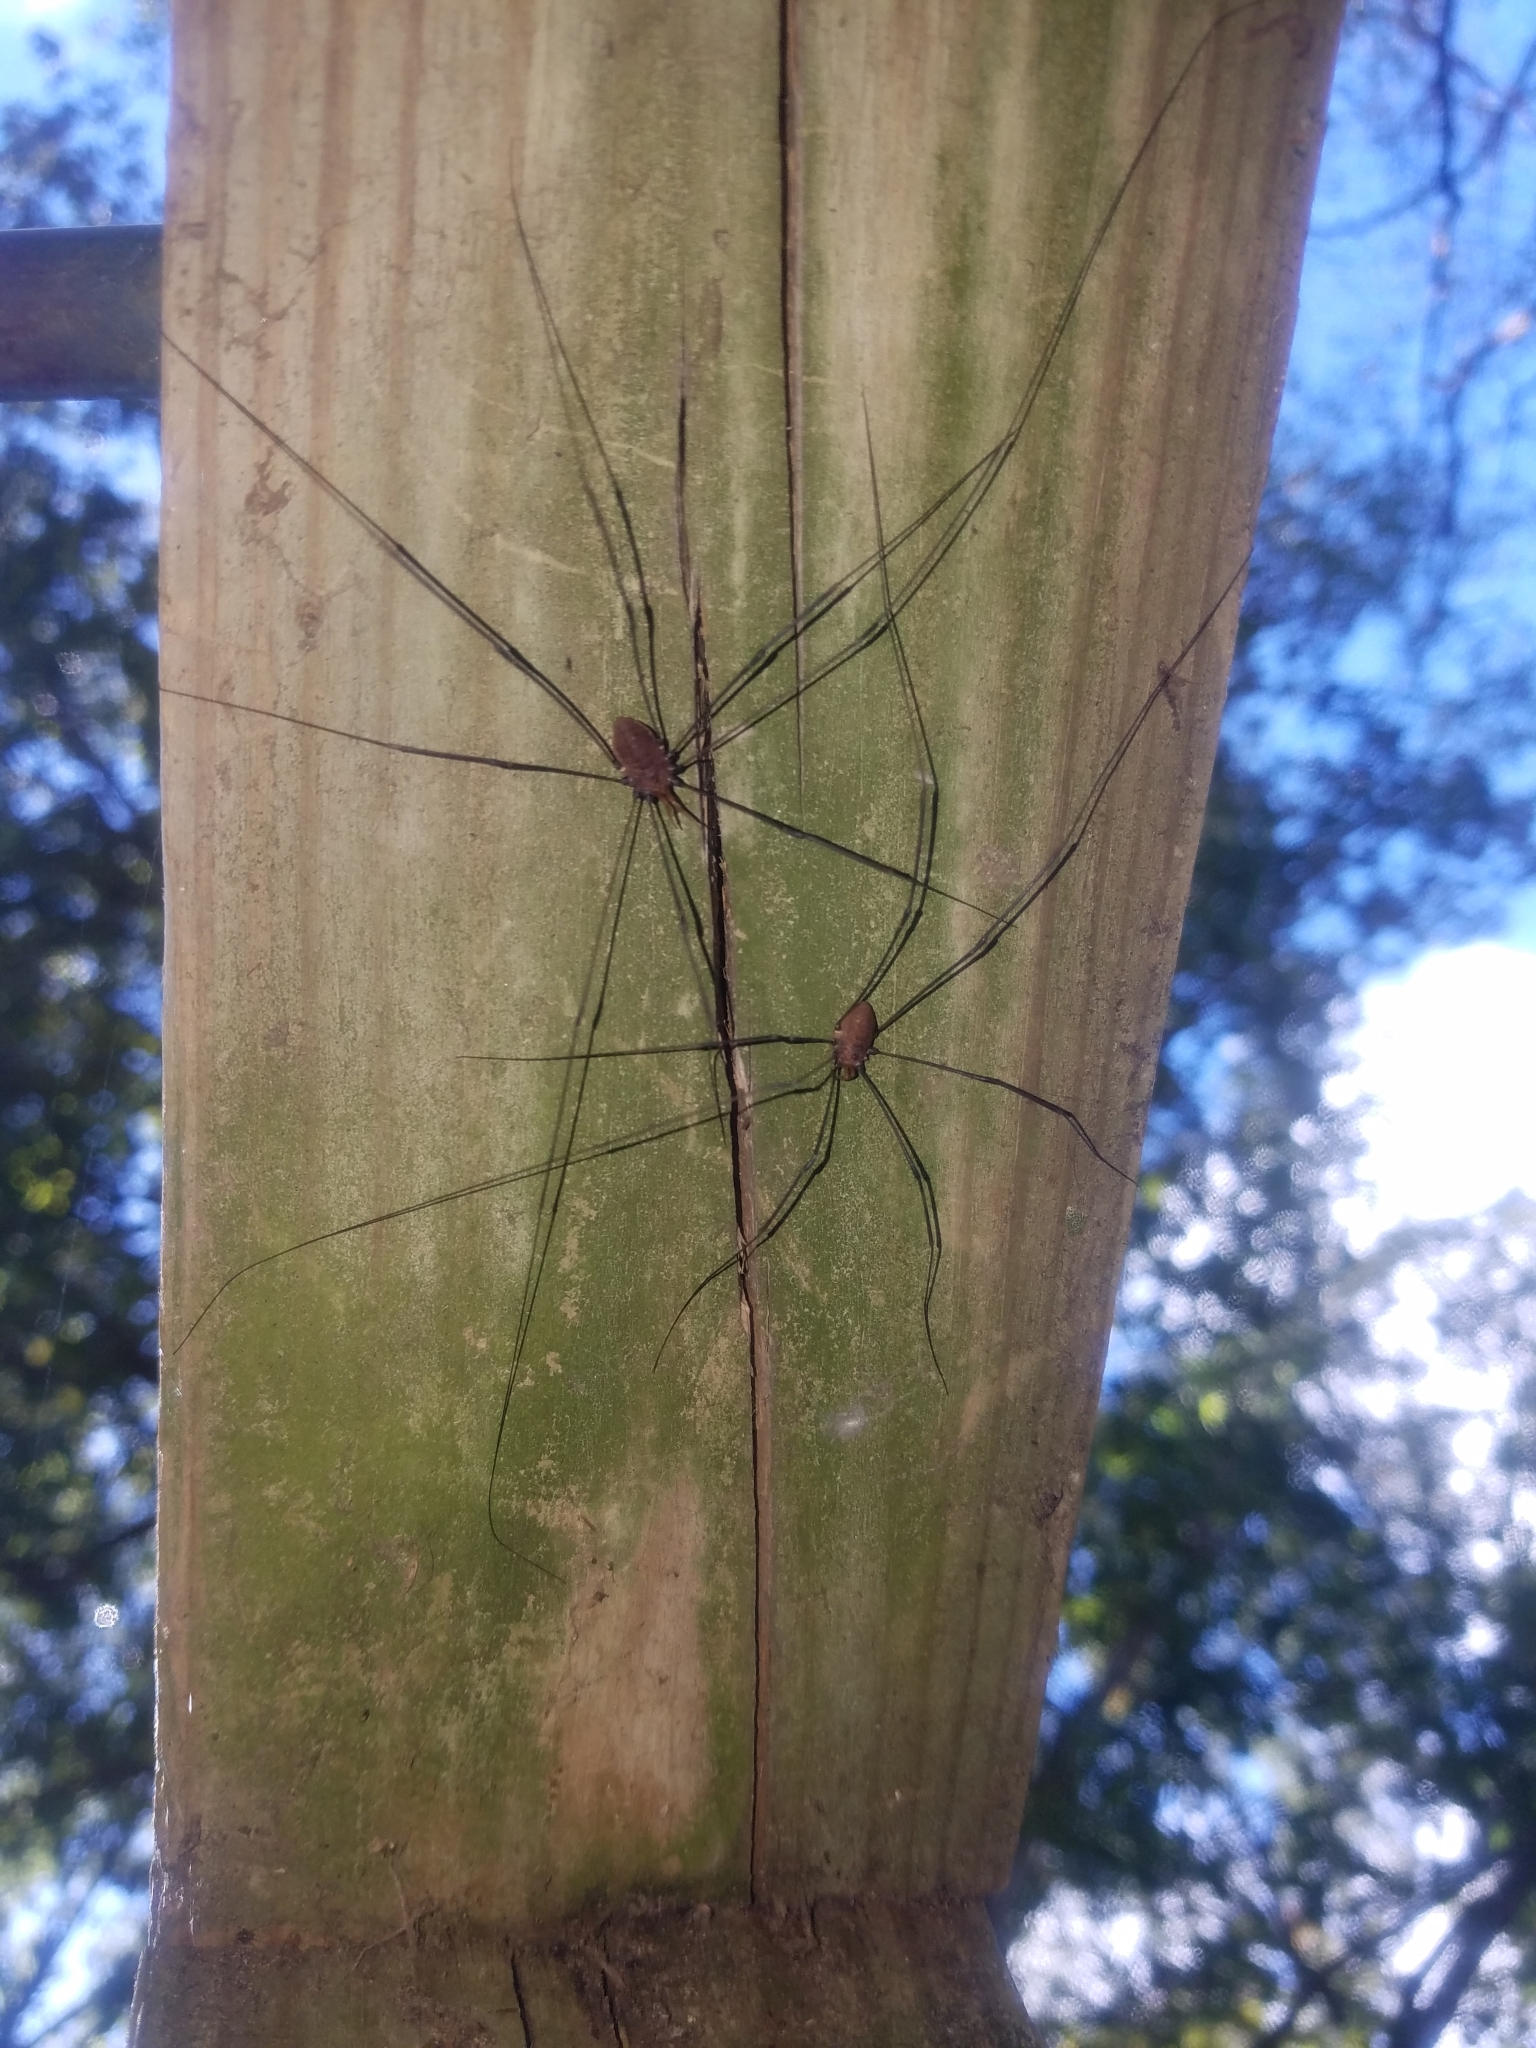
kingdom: Animalia
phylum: Arthropoda
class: Arachnida
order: Opiliones
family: Sclerosomatidae
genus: Leiobunum
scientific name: Leiobunum vittatum
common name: Eastern harvestman
